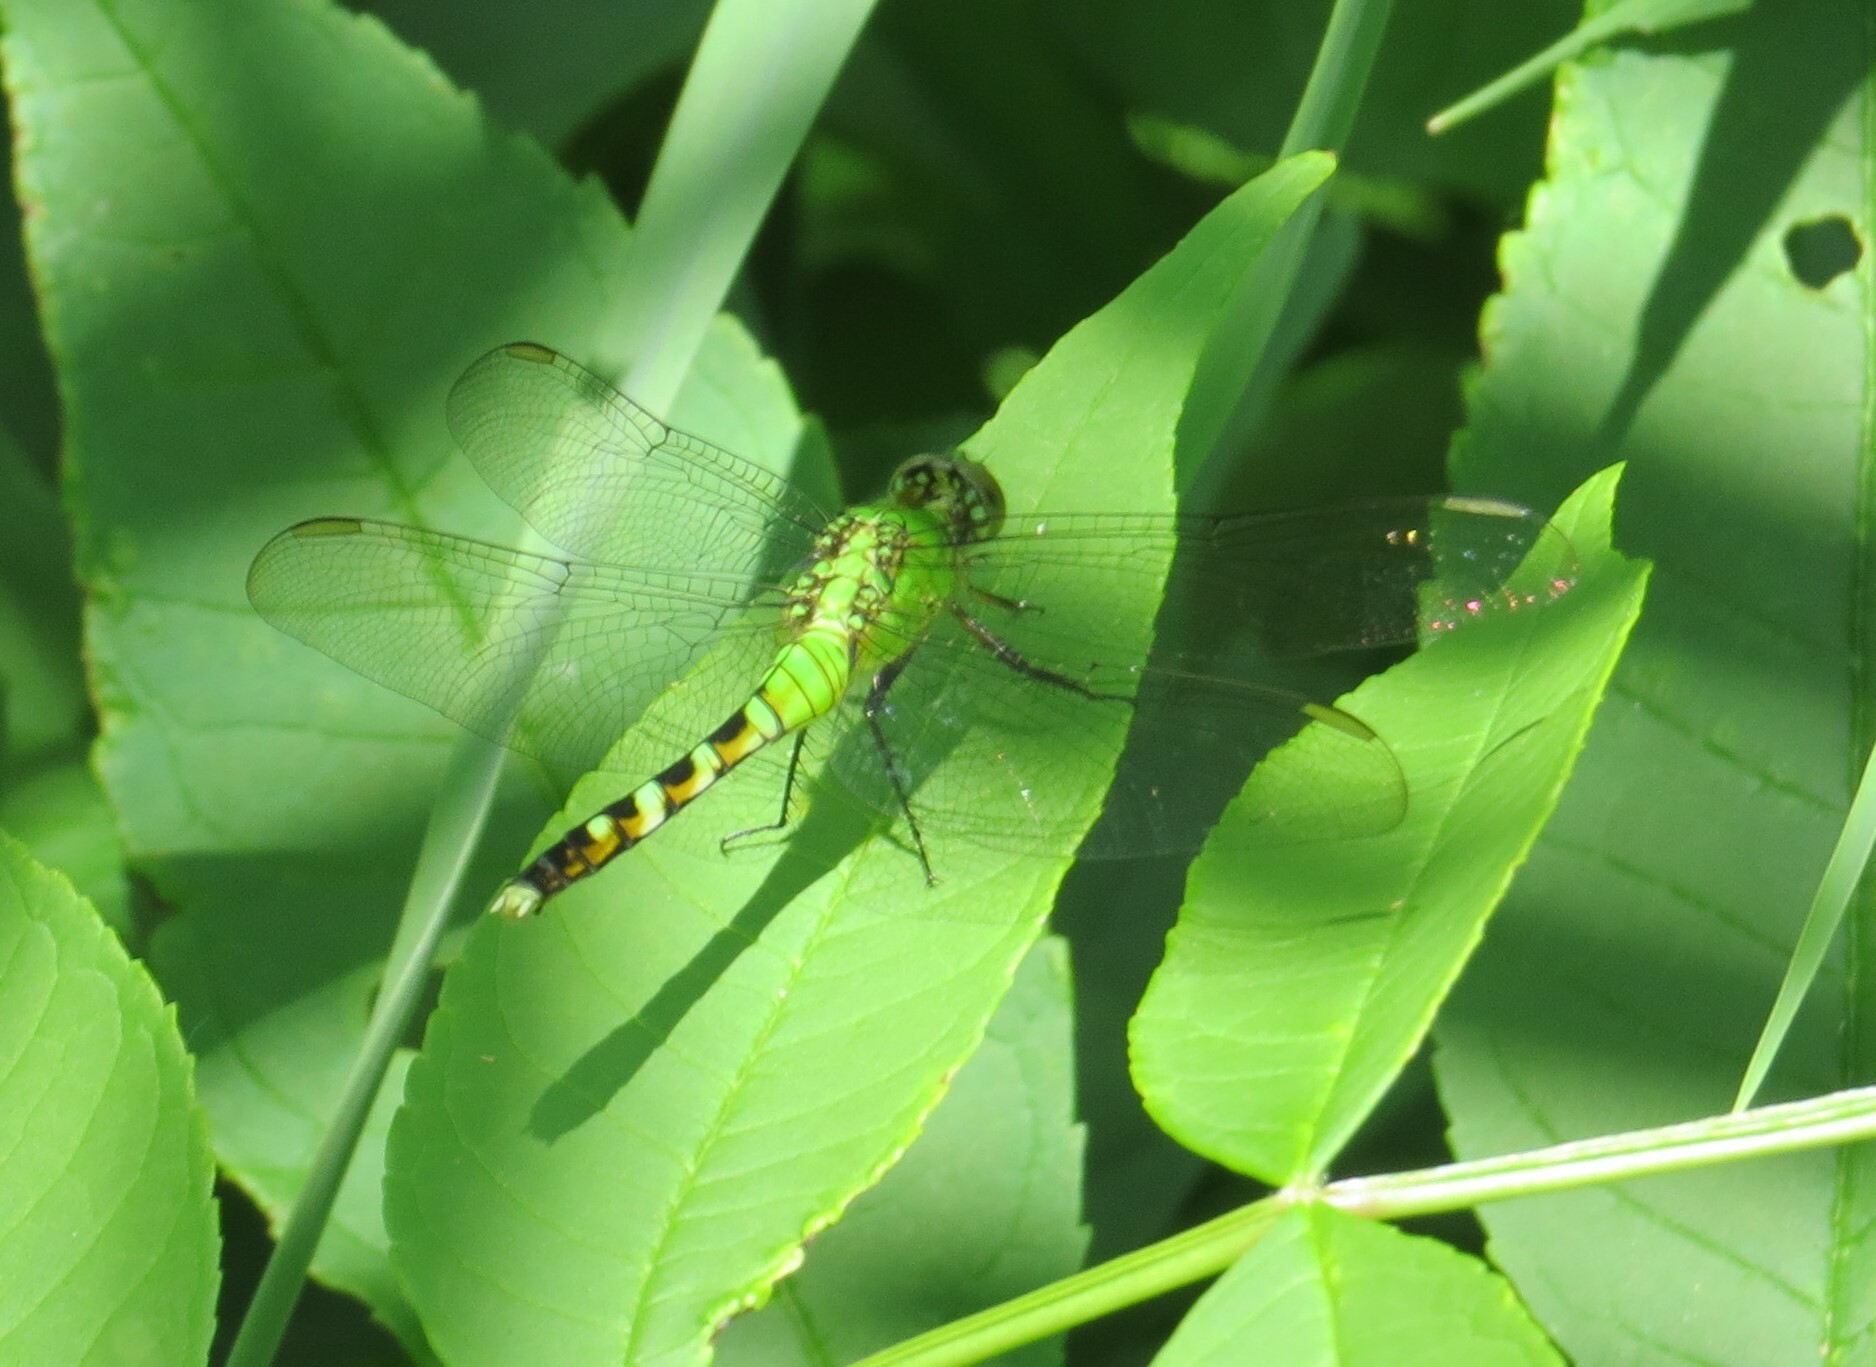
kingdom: Animalia
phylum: Arthropoda
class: Insecta
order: Odonata
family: Libellulidae
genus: Erythemis
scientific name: Erythemis simplicicollis
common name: Eastern pondhawk
